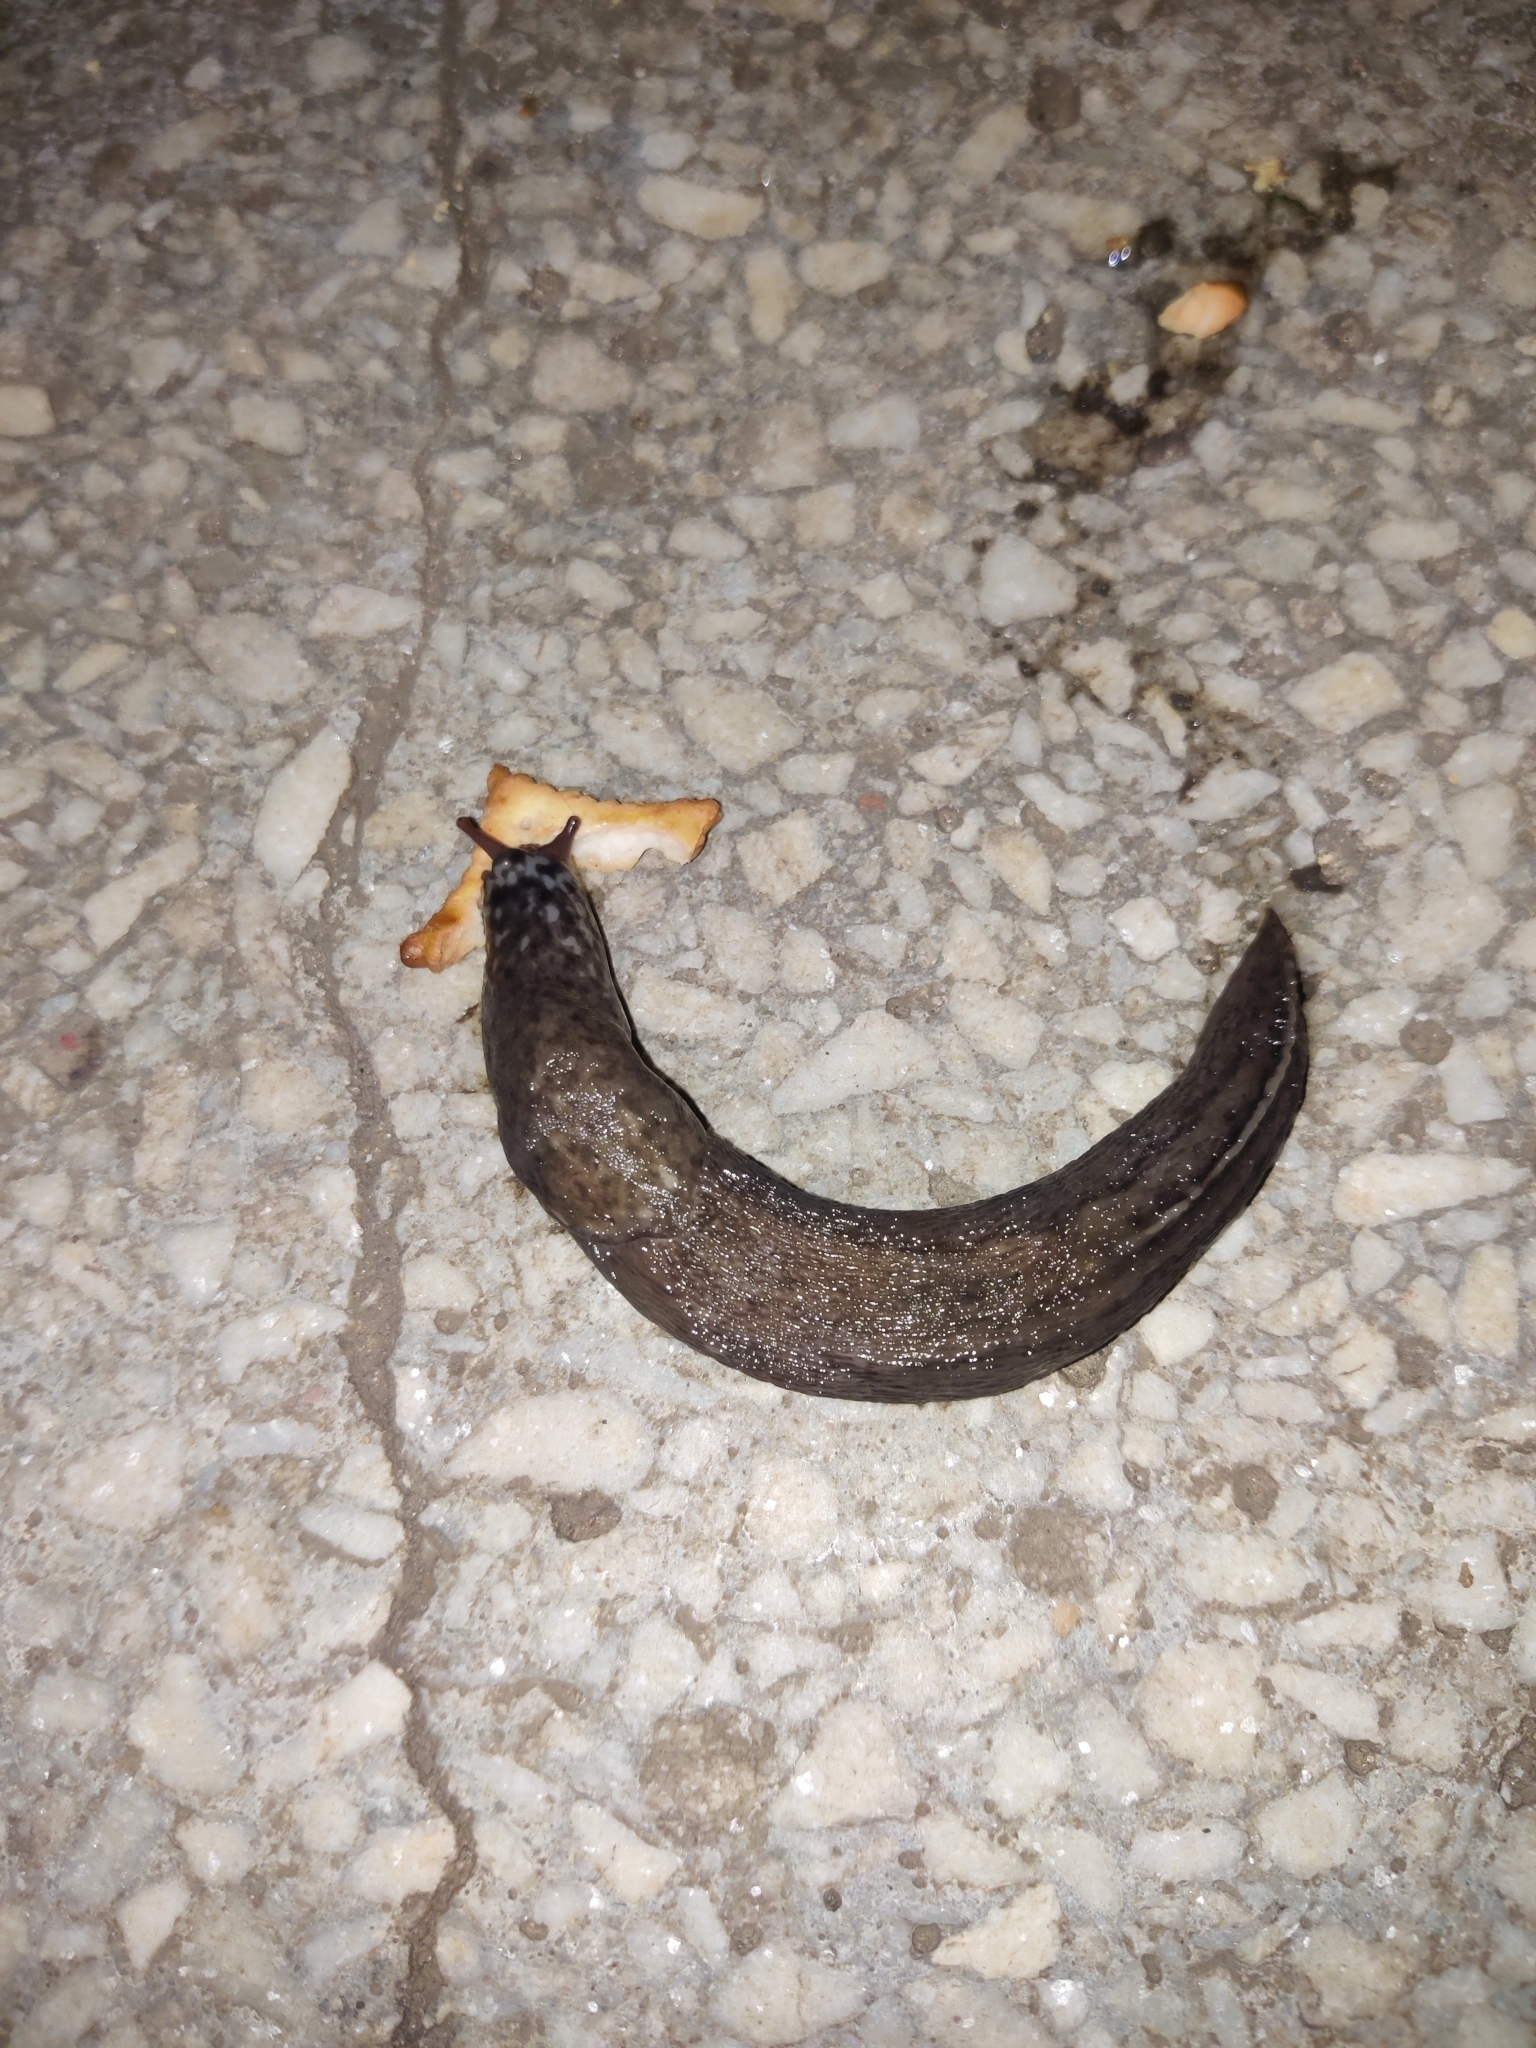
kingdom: Animalia
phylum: Mollusca
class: Gastropoda
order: Stylommatophora
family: Limacidae
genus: Limax
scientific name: Limax maximus
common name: Great grey slug
